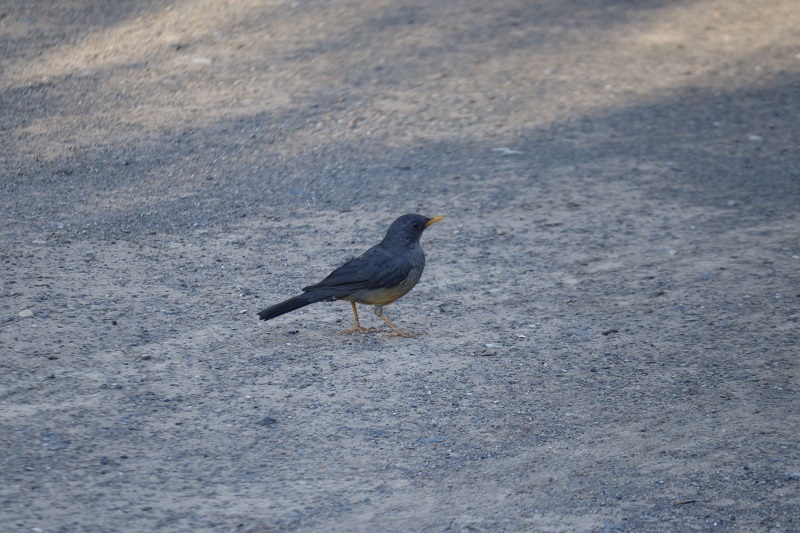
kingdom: Animalia
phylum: Chordata
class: Aves
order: Passeriformes
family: Turdidae
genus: Turdus
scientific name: Turdus smithi
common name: Karoo thrush
